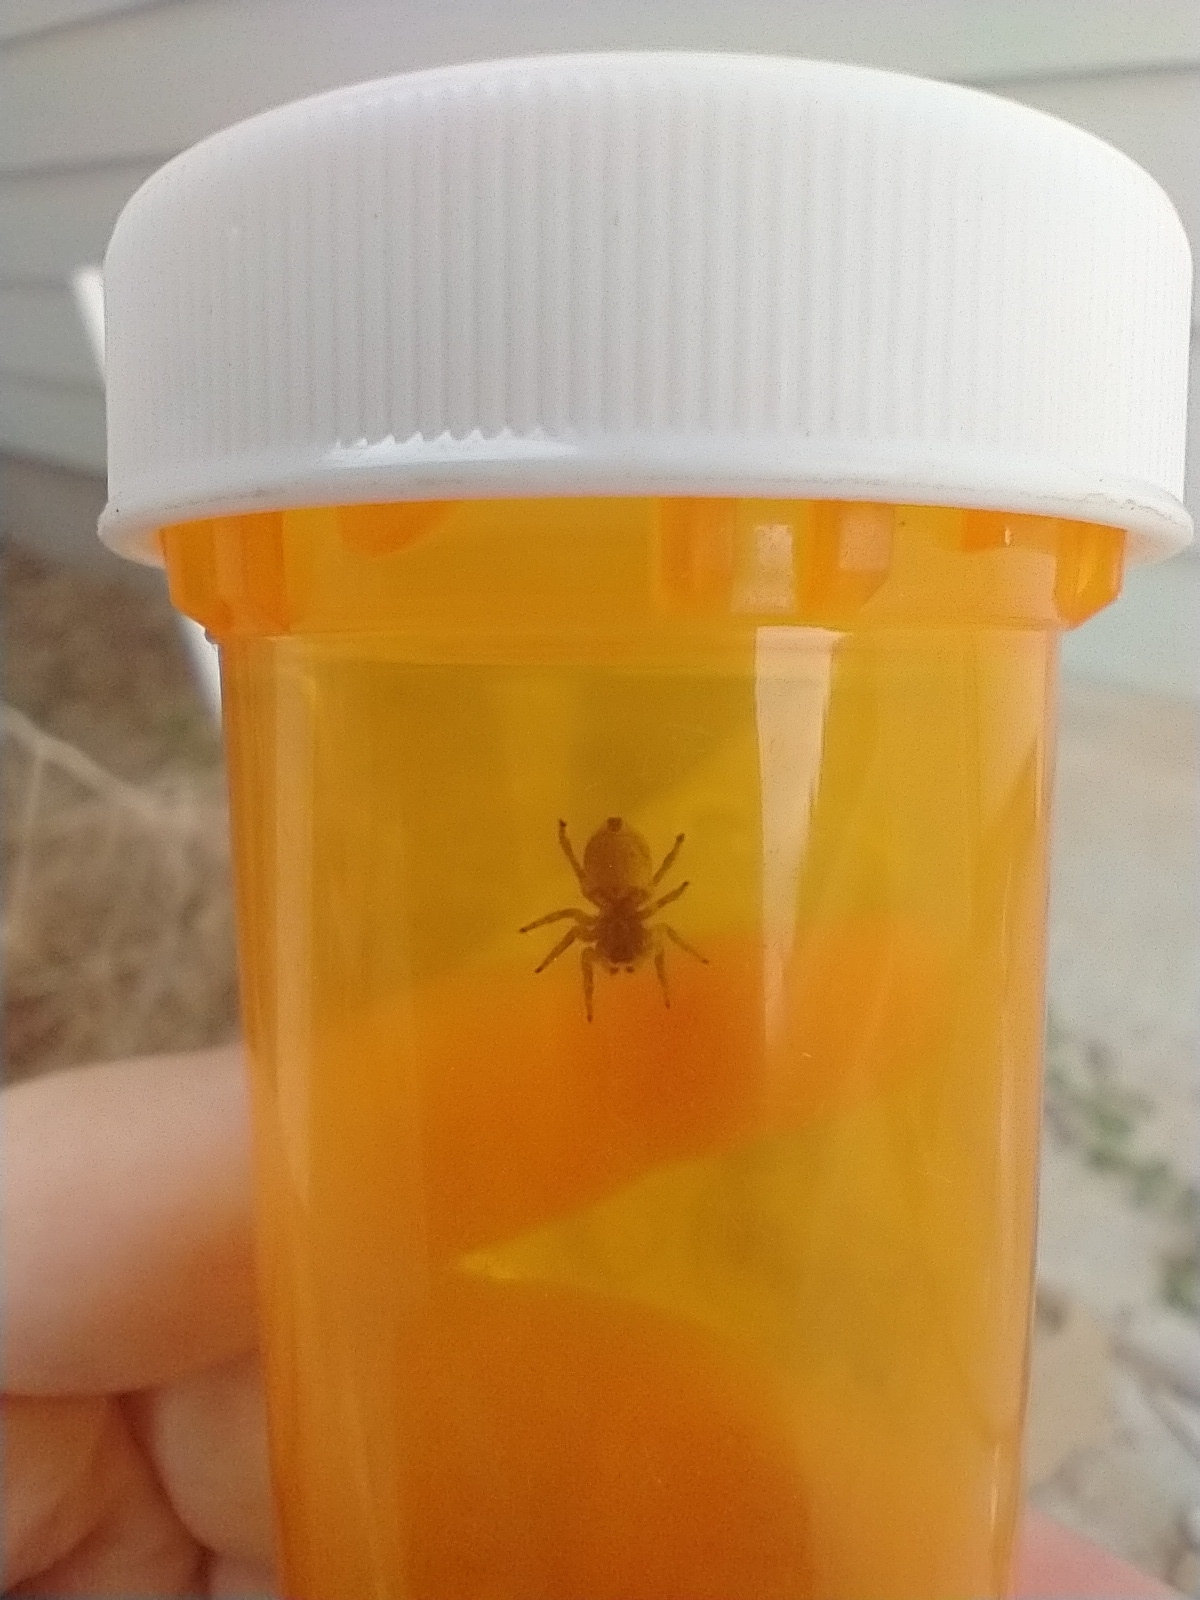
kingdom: Animalia
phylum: Arthropoda
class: Arachnida
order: Araneae
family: Salticidae
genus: Attulus
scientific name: Attulus ammophilus
